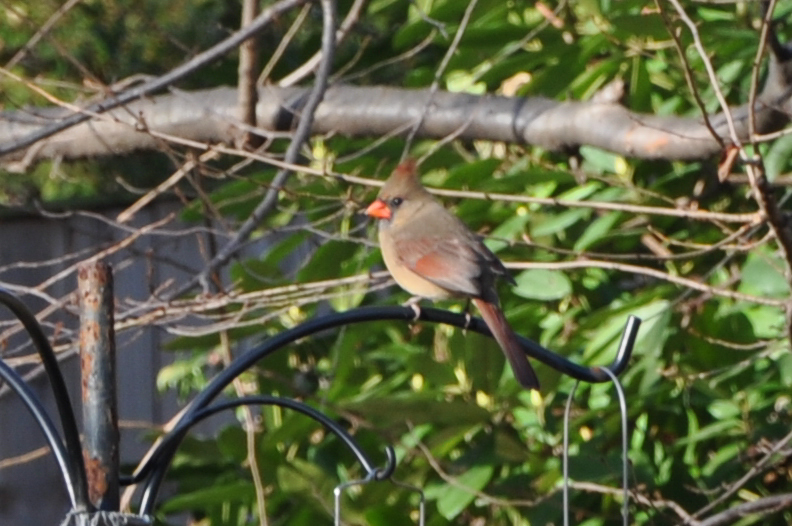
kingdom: Animalia
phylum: Chordata
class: Aves
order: Passeriformes
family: Cardinalidae
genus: Cardinalis
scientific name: Cardinalis cardinalis
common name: Northern cardinal
